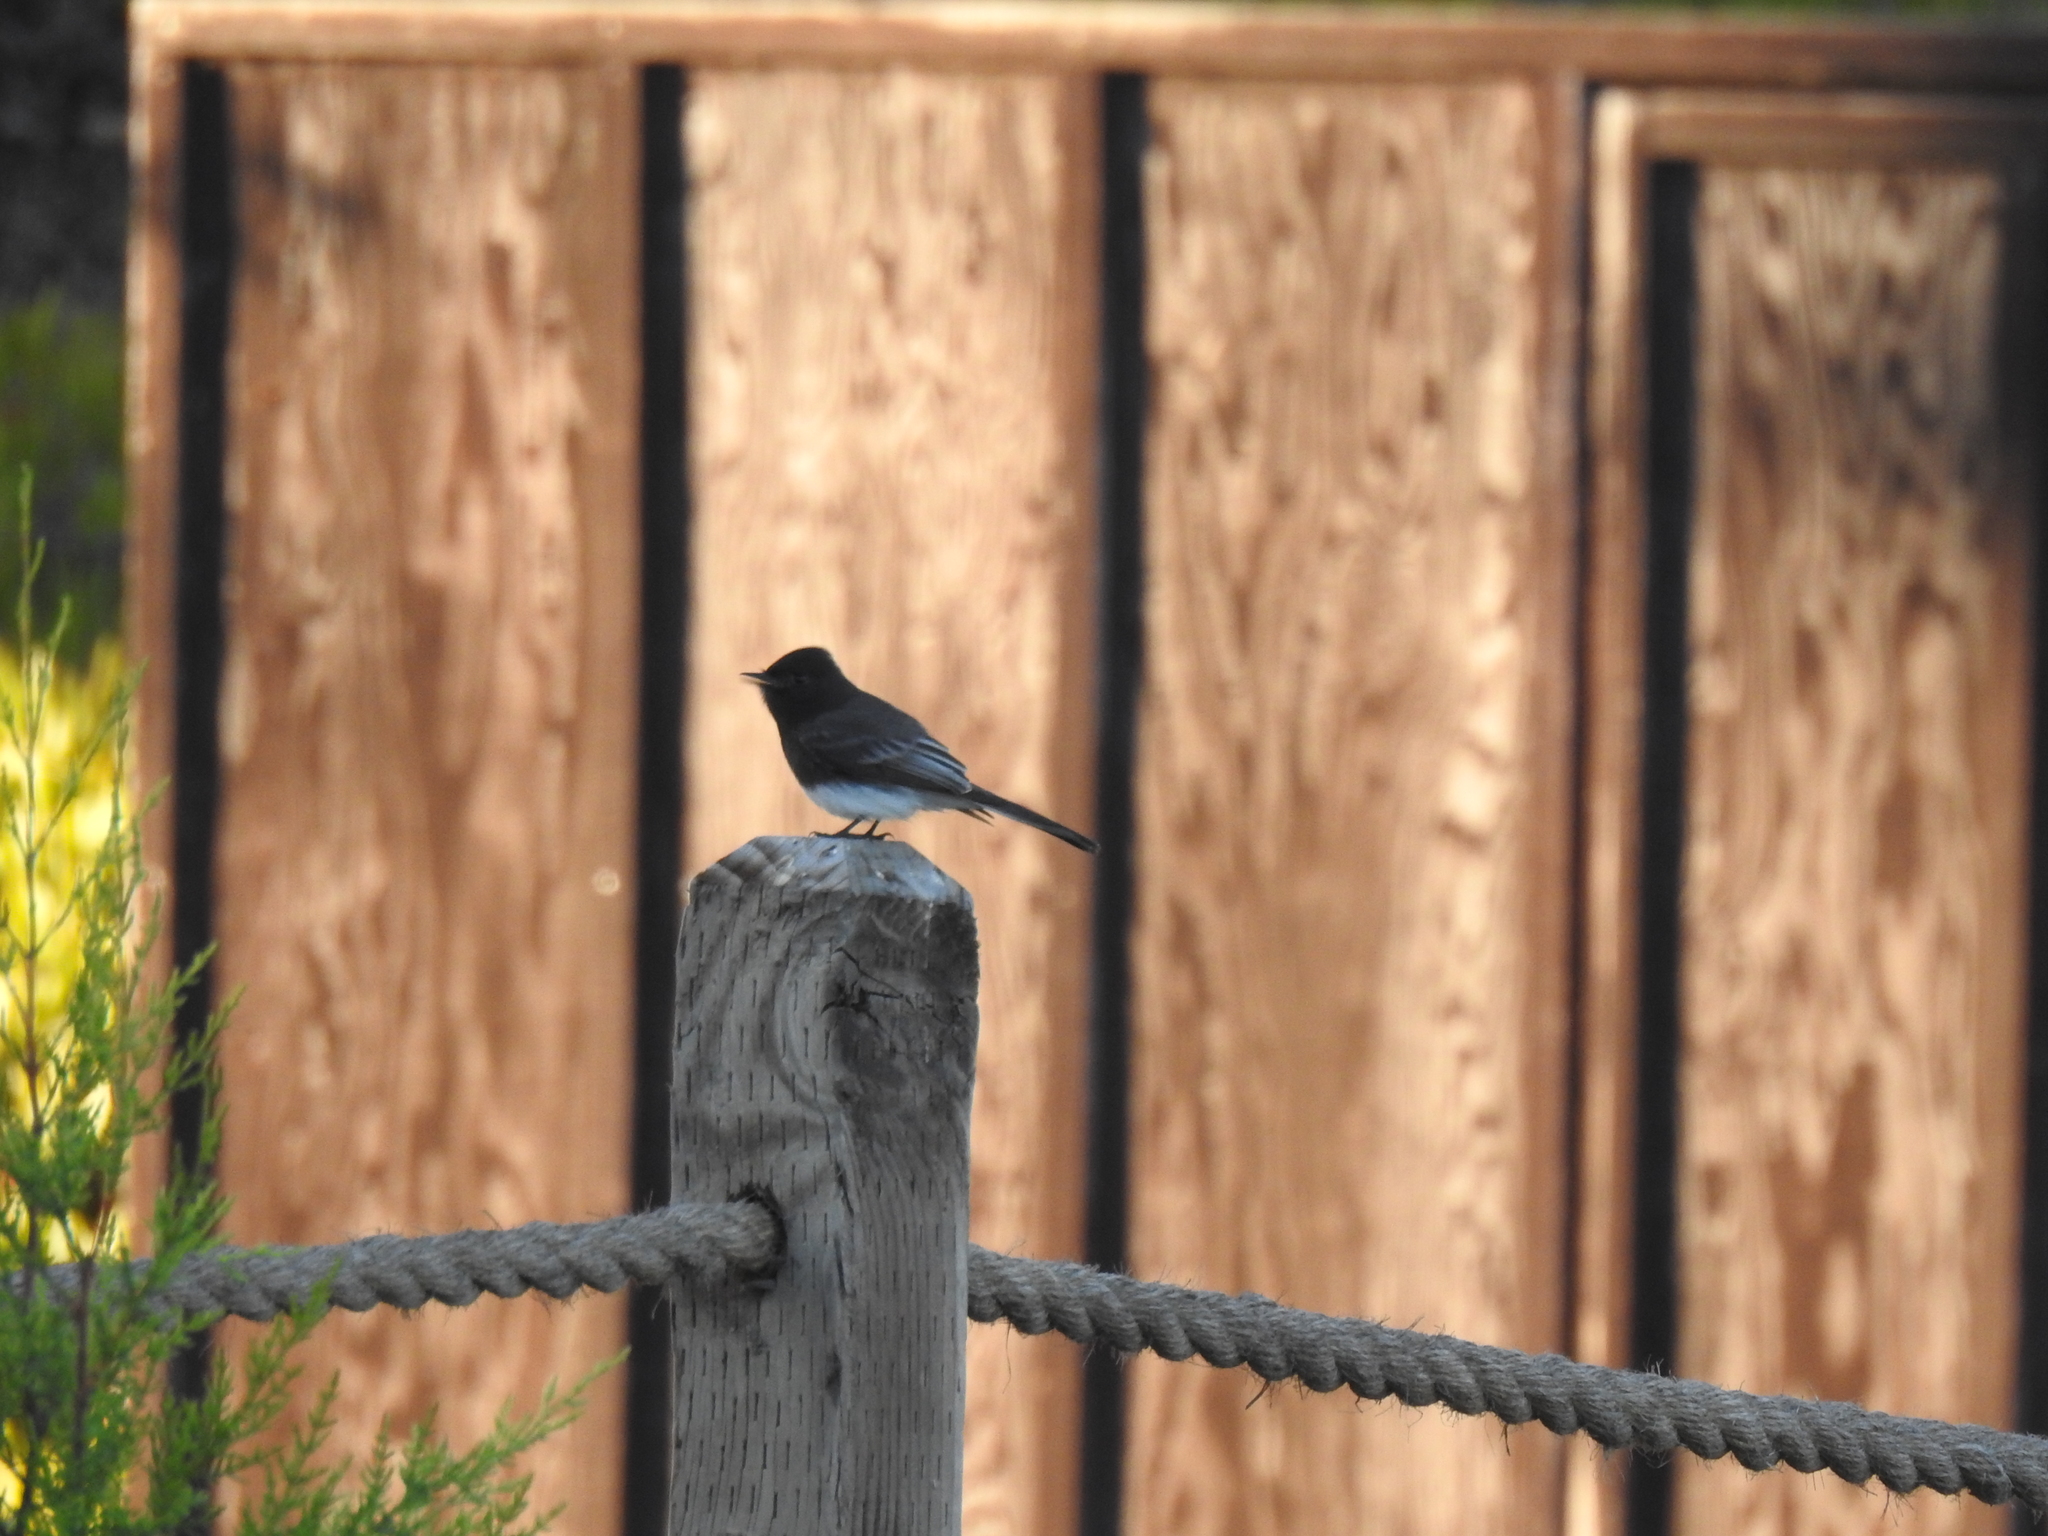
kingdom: Animalia
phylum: Chordata
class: Aves
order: Passeriformes
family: Tyrannidae
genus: Sayornis
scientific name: Sayornis nigricans
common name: Black phoebe
